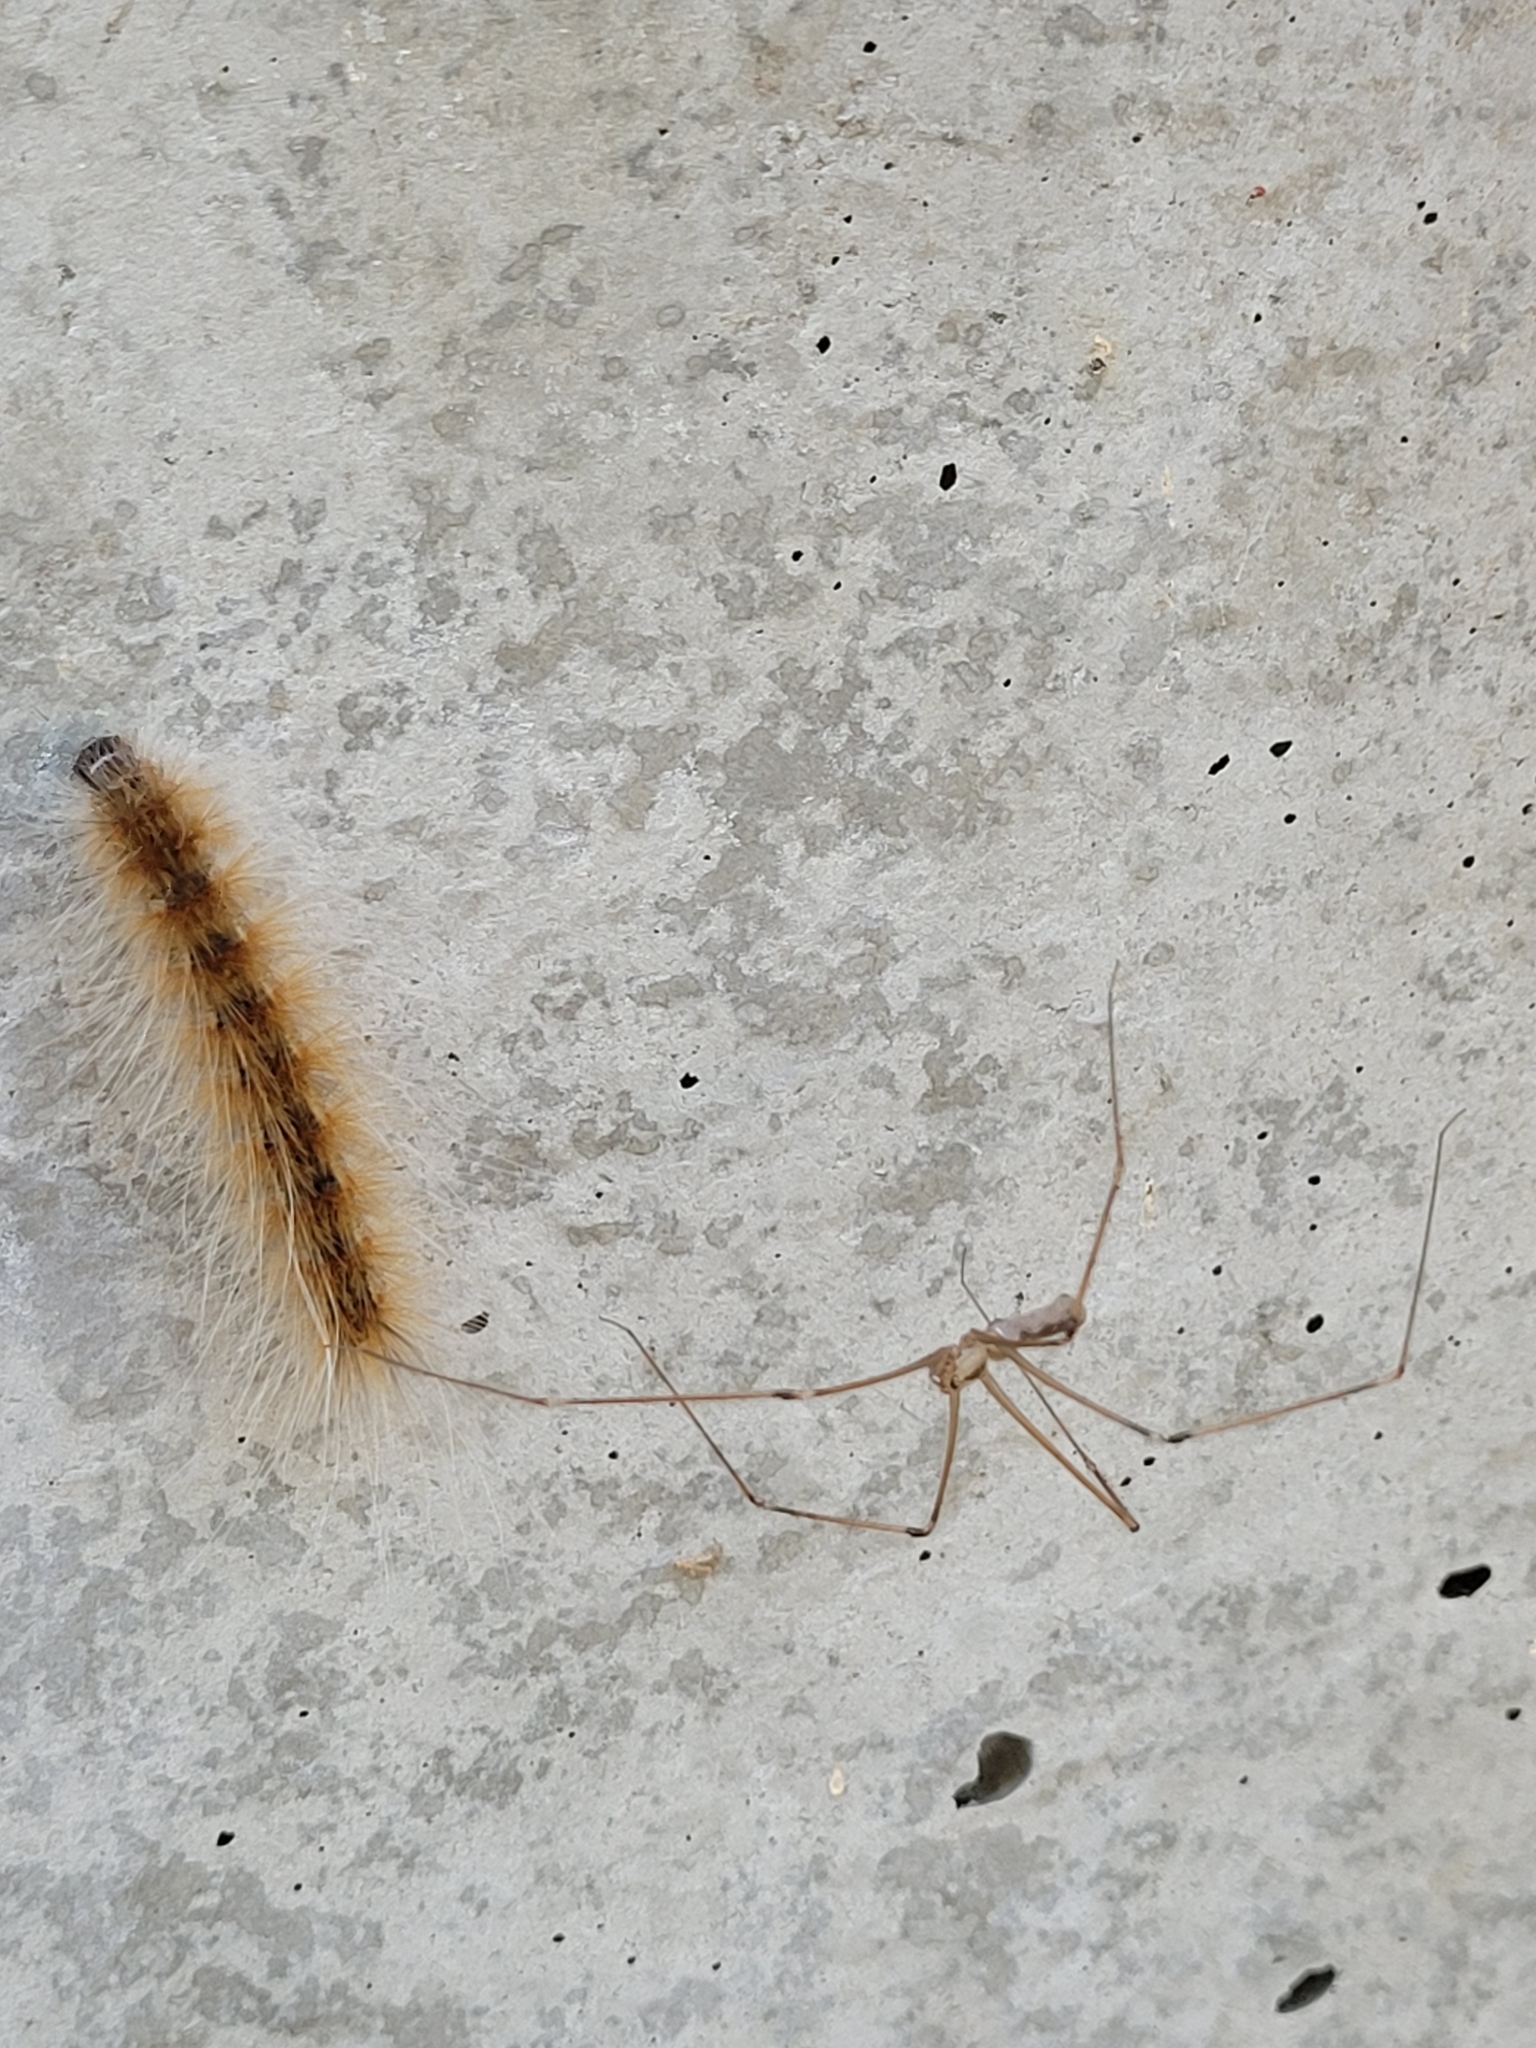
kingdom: Animalia
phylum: Arthropoda
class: Arachnida
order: Araneae
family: Pholcidae
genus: Pholcus
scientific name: Pholcus phalangioides
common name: Longbodied cellar spider
